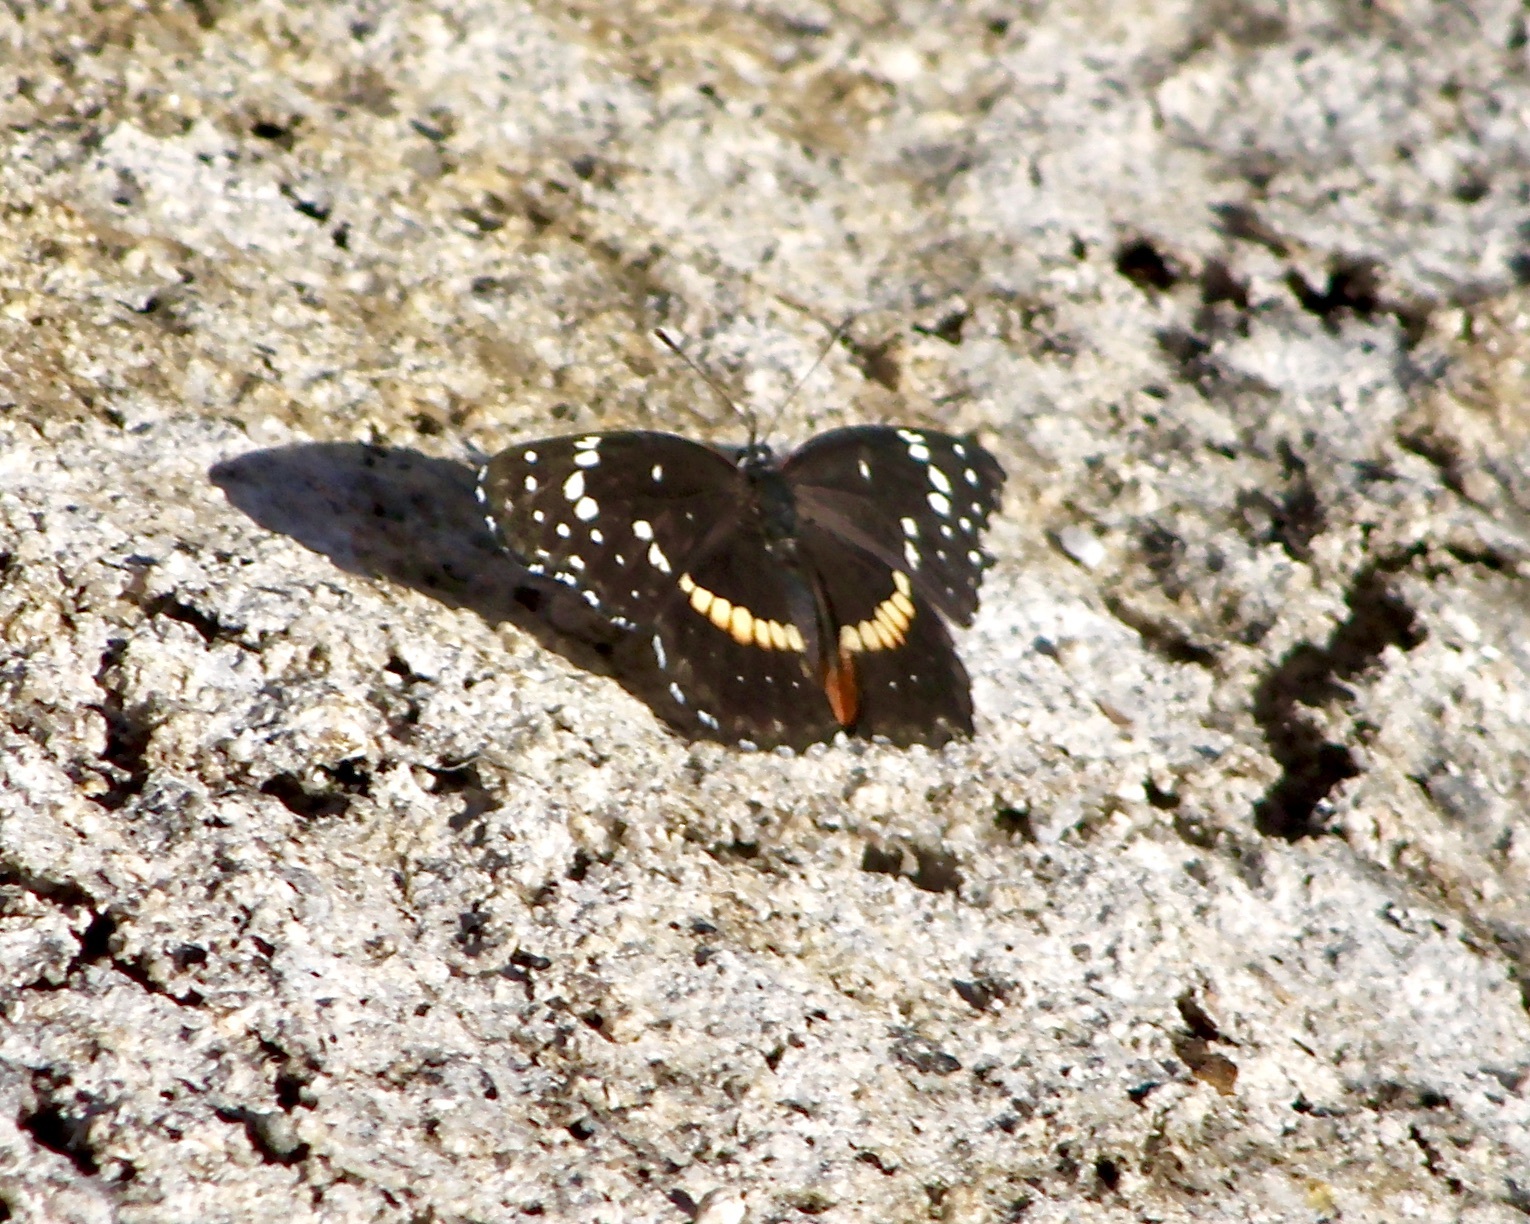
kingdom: Animalia
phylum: Arthropoda
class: Insecta
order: Lepidoptera
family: Nymphalidae
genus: Chlosyne
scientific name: Chlosyne lacinia
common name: Bordered patch
